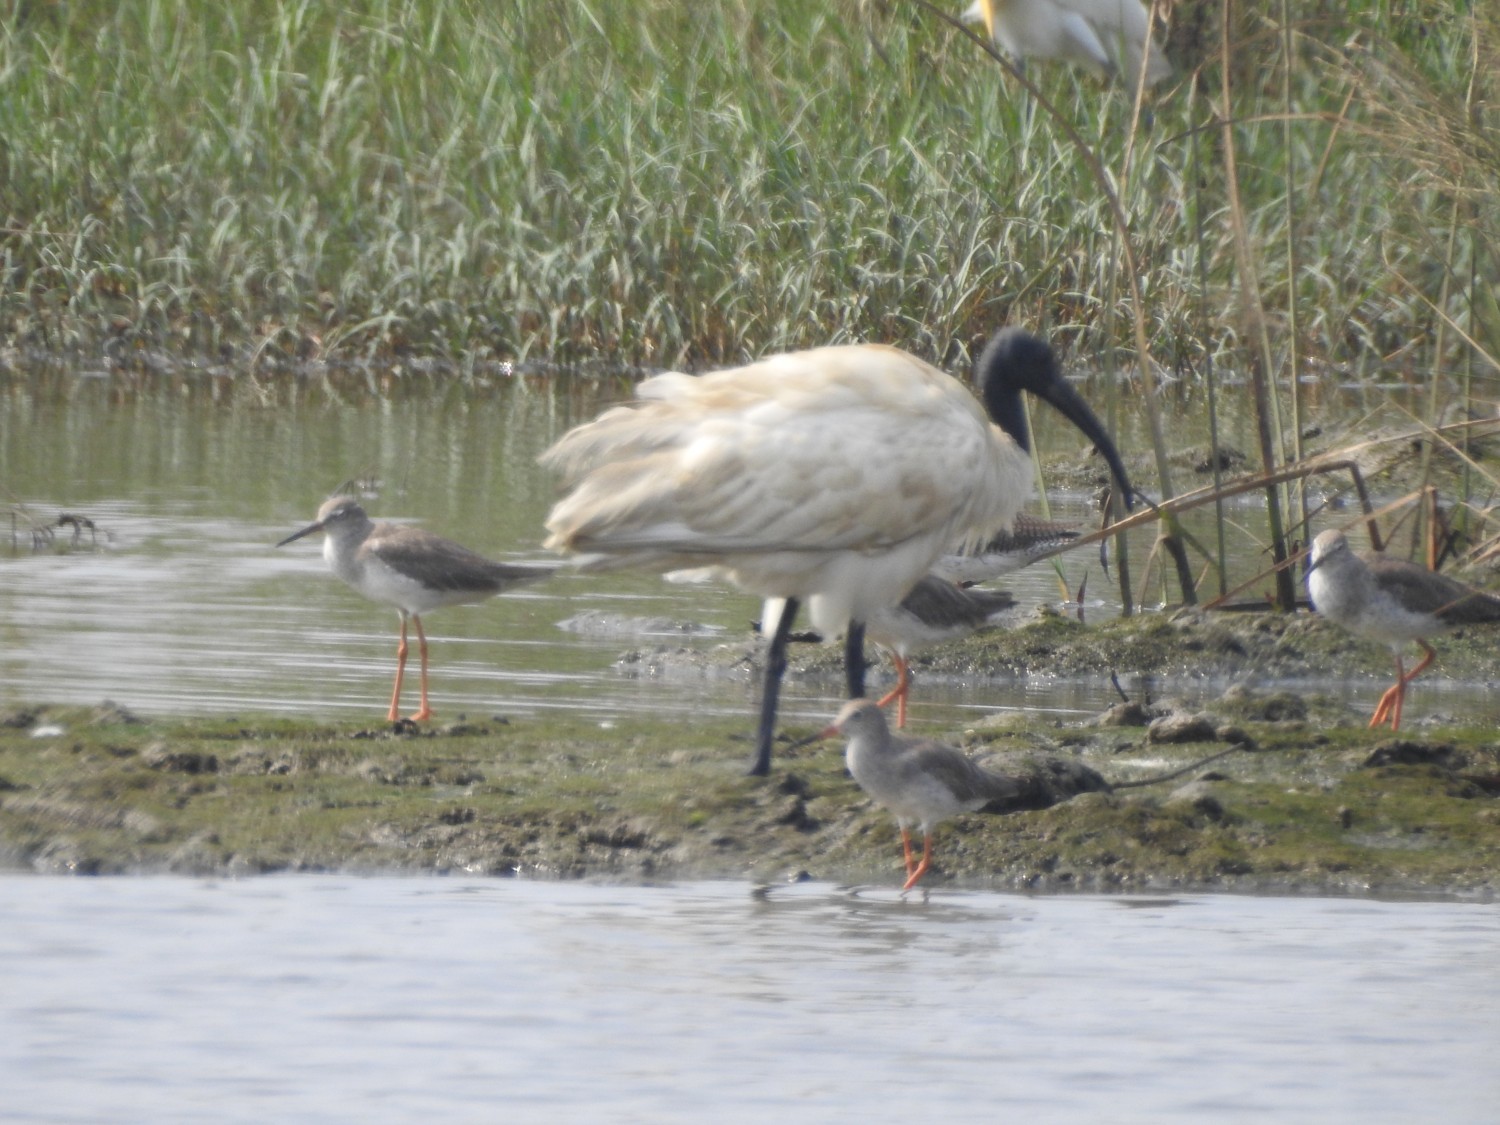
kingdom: Animalia
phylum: Chordata
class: Aves
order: Pelecaniformes
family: Threskiornithidae
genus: Threskiornis
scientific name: Threskiornis melanocephalus
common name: Black-headed ibis
